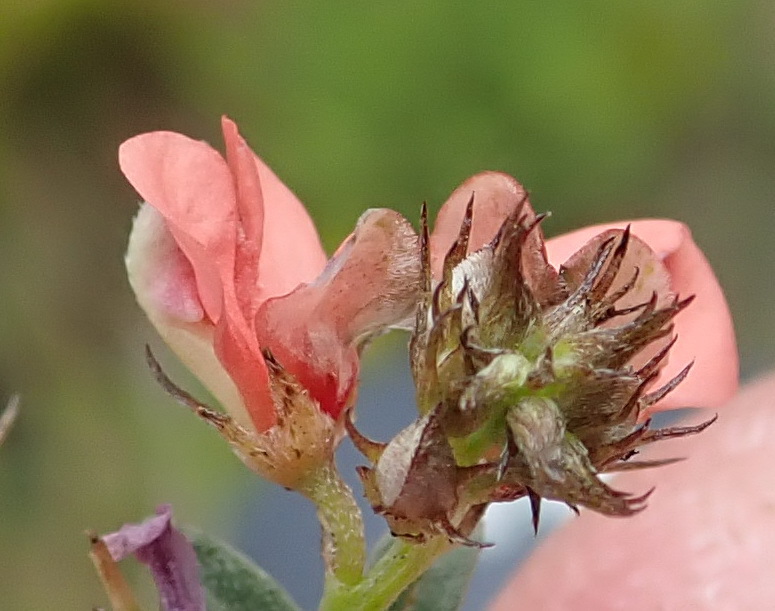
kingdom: Plantae
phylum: Tracheophyta
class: Magnoliopsida
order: Fabales
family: Fabaceae
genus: Indigofera
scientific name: Indigofera priorii
